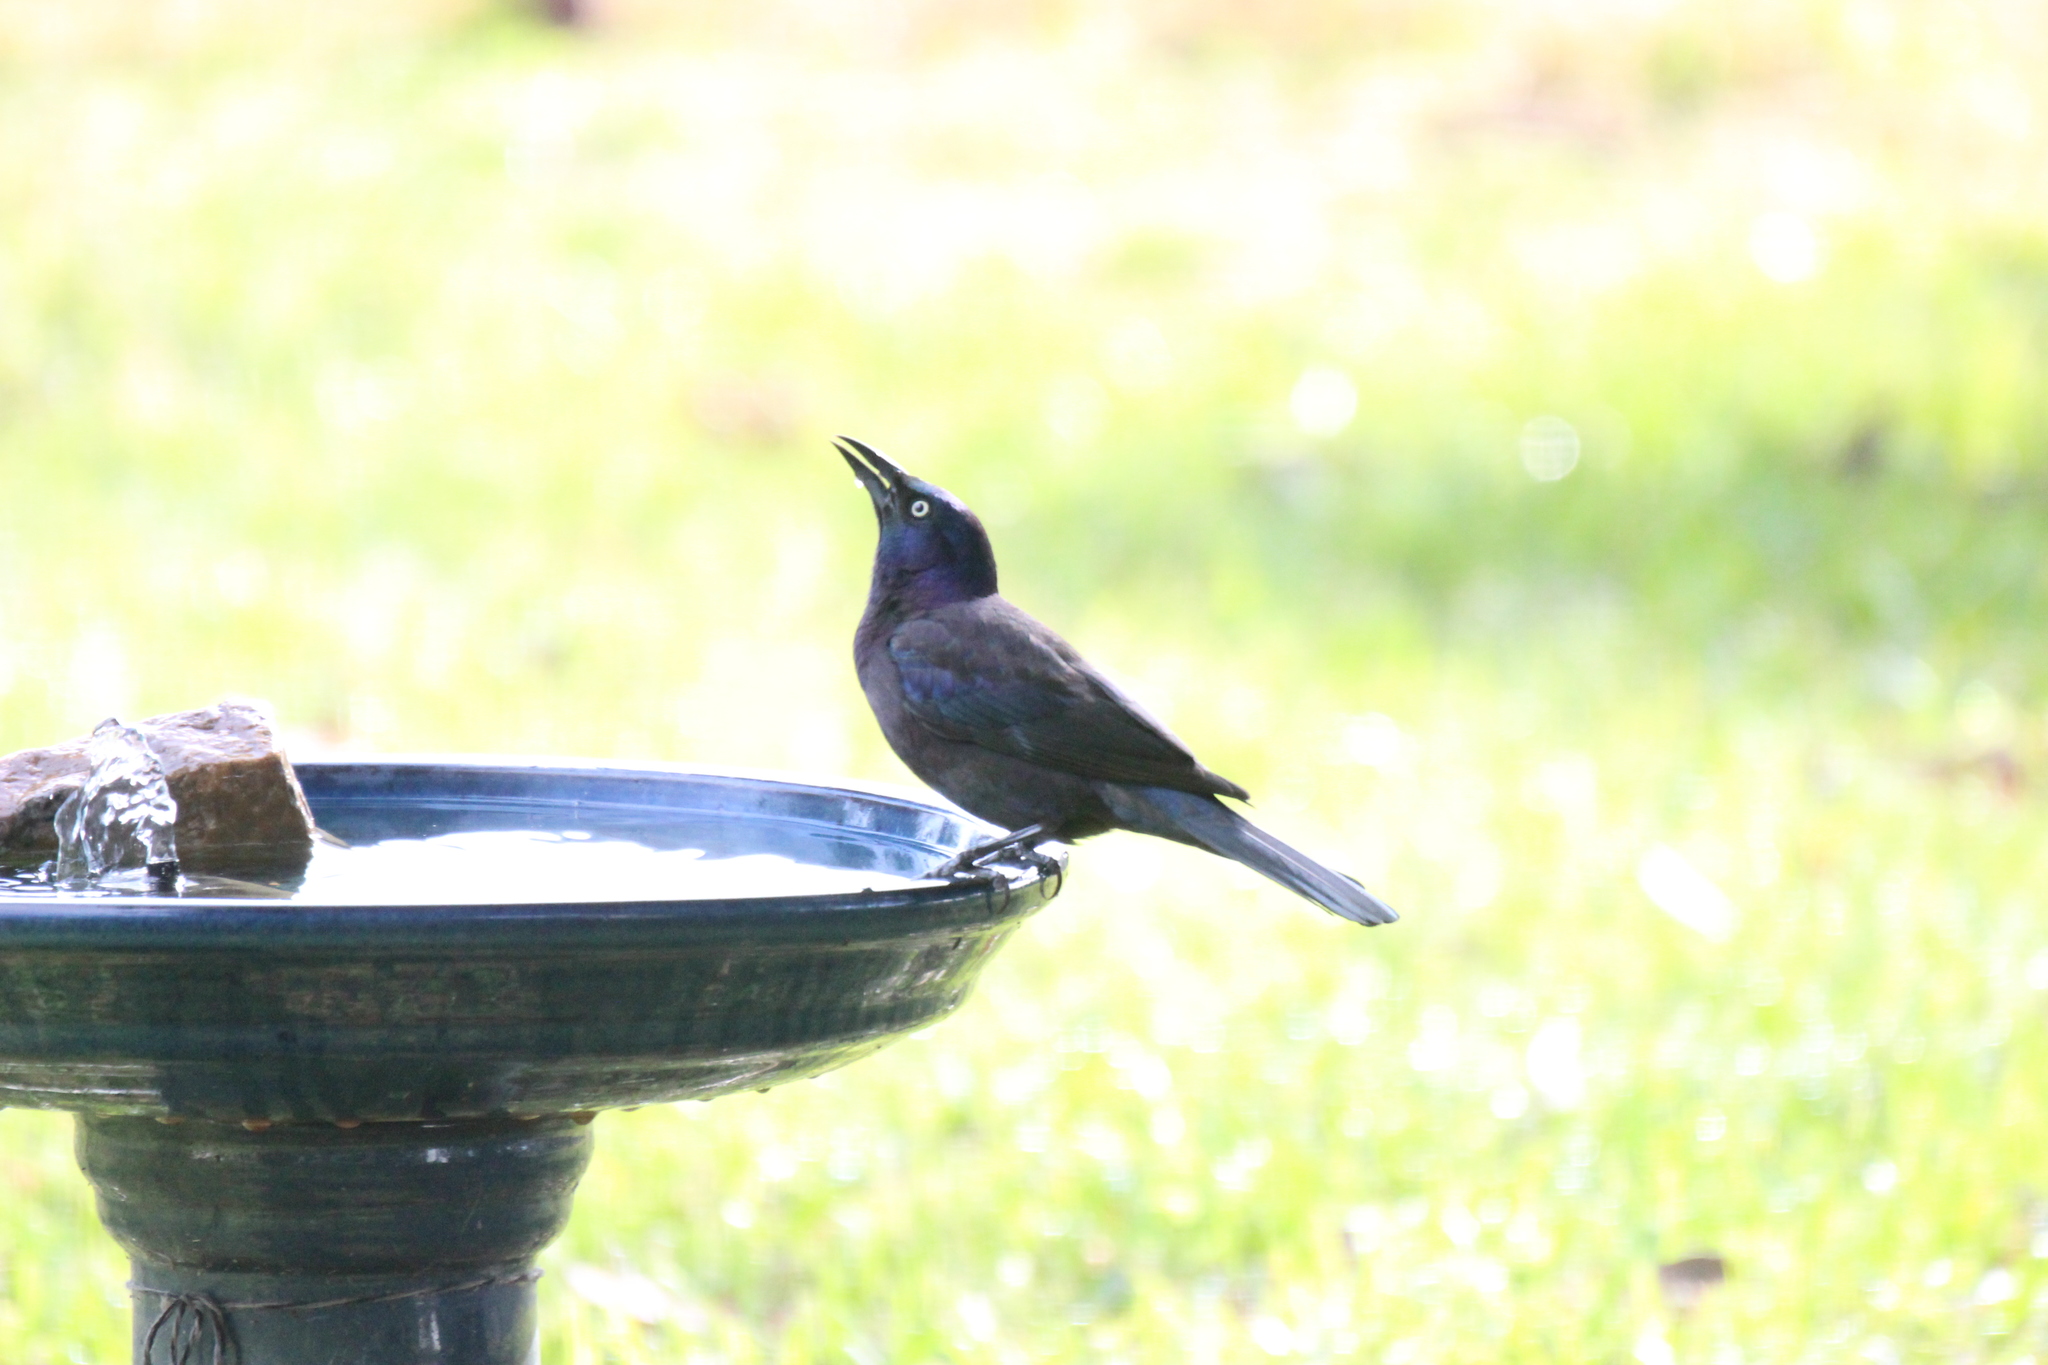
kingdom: Animalia
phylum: Chordata
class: Aves
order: Passeriformes
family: Icteridae
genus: Quiscalus
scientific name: Quiscalus quiscula
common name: Common grackle
